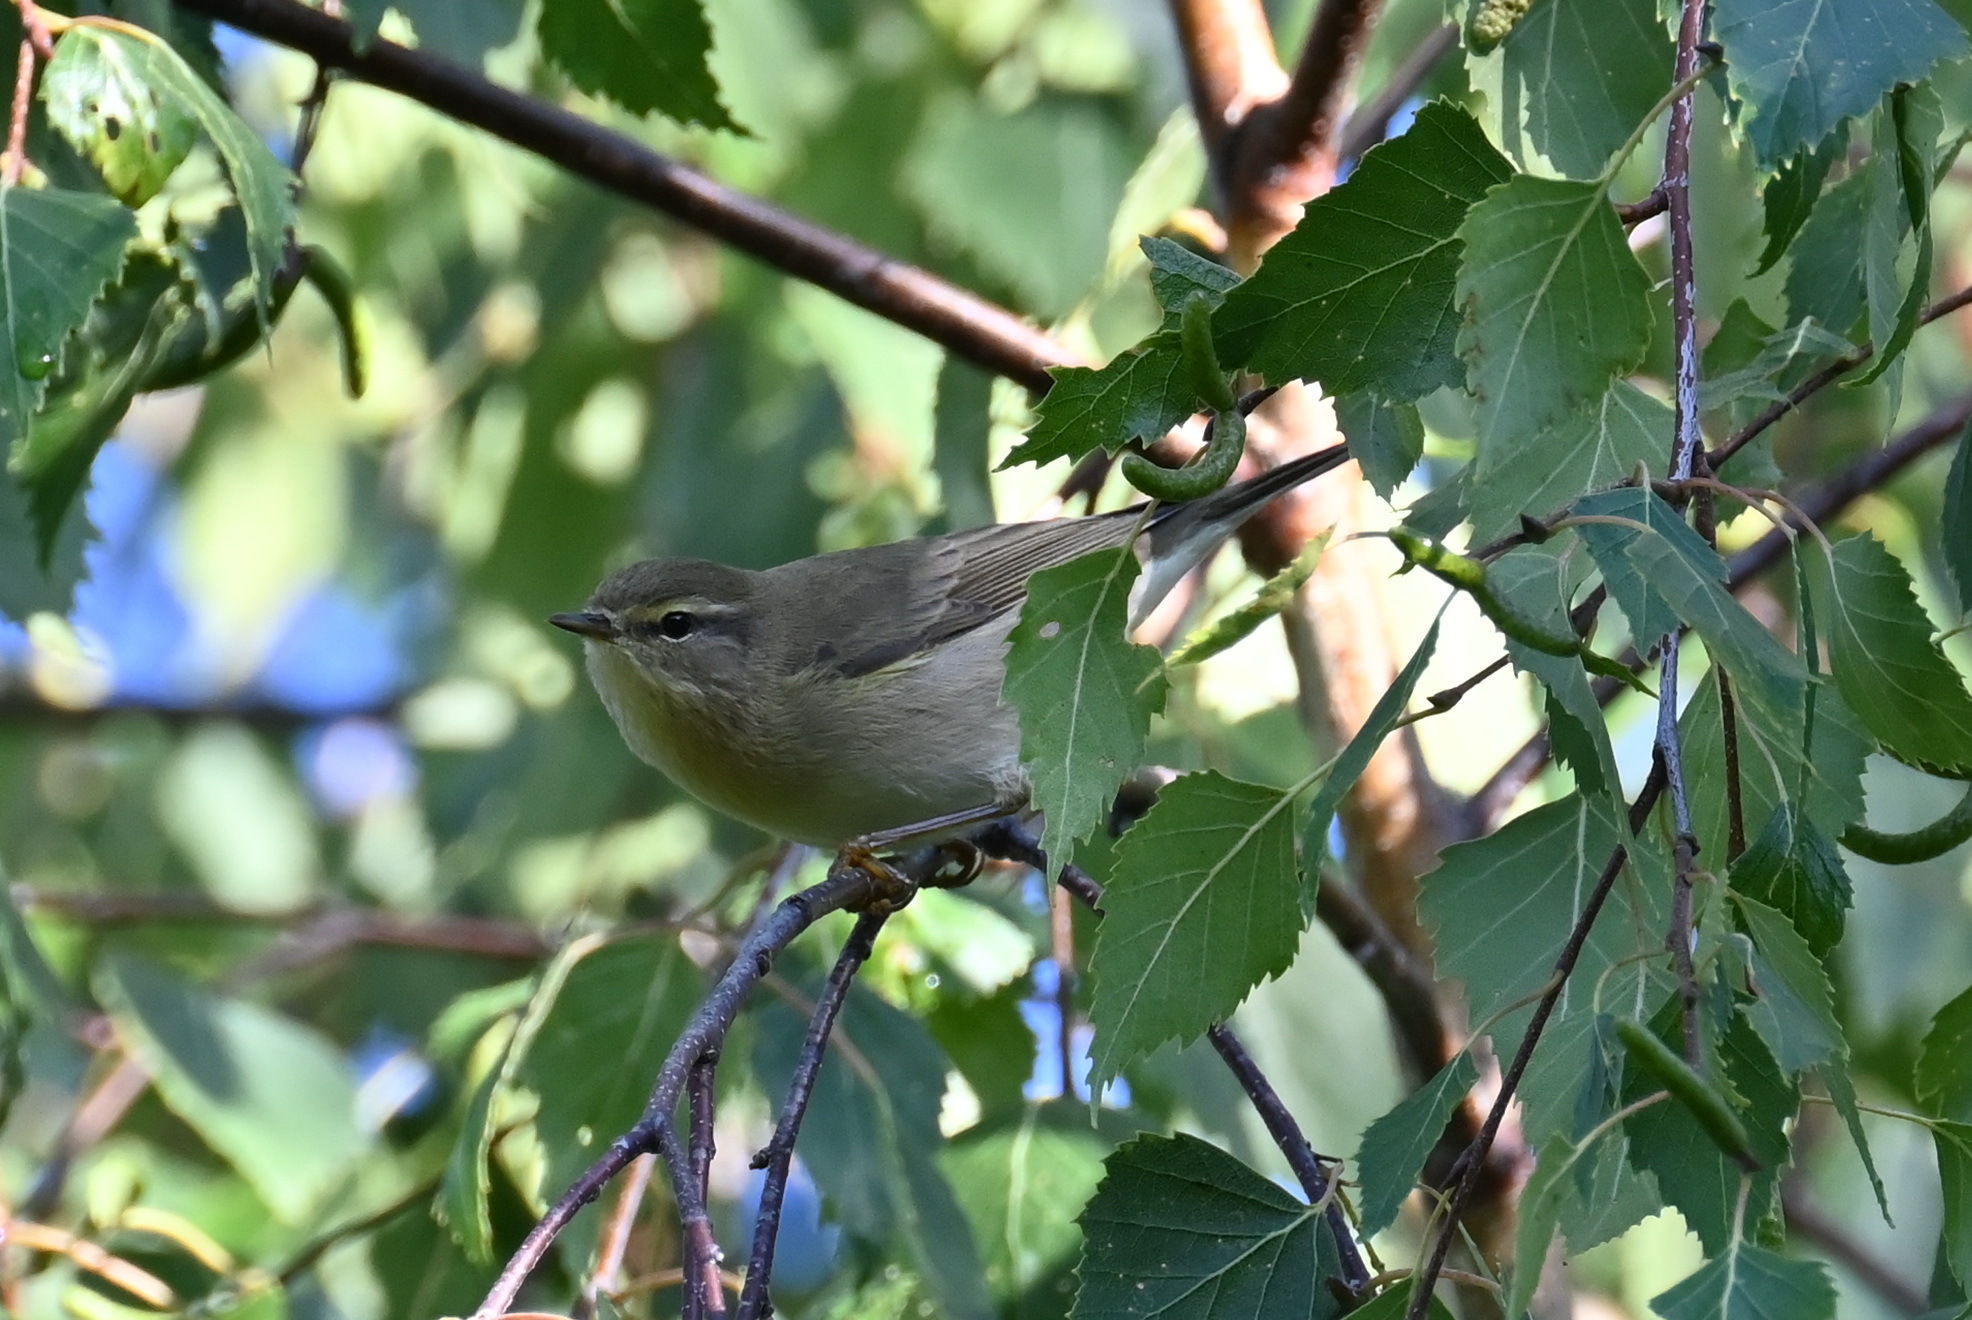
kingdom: Animalia
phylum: Chordata
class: Aves
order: Passeriformes
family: Phylloscopidae
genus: Phylloscopus
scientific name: Phylloscopus trochilus
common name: Willow warbler
